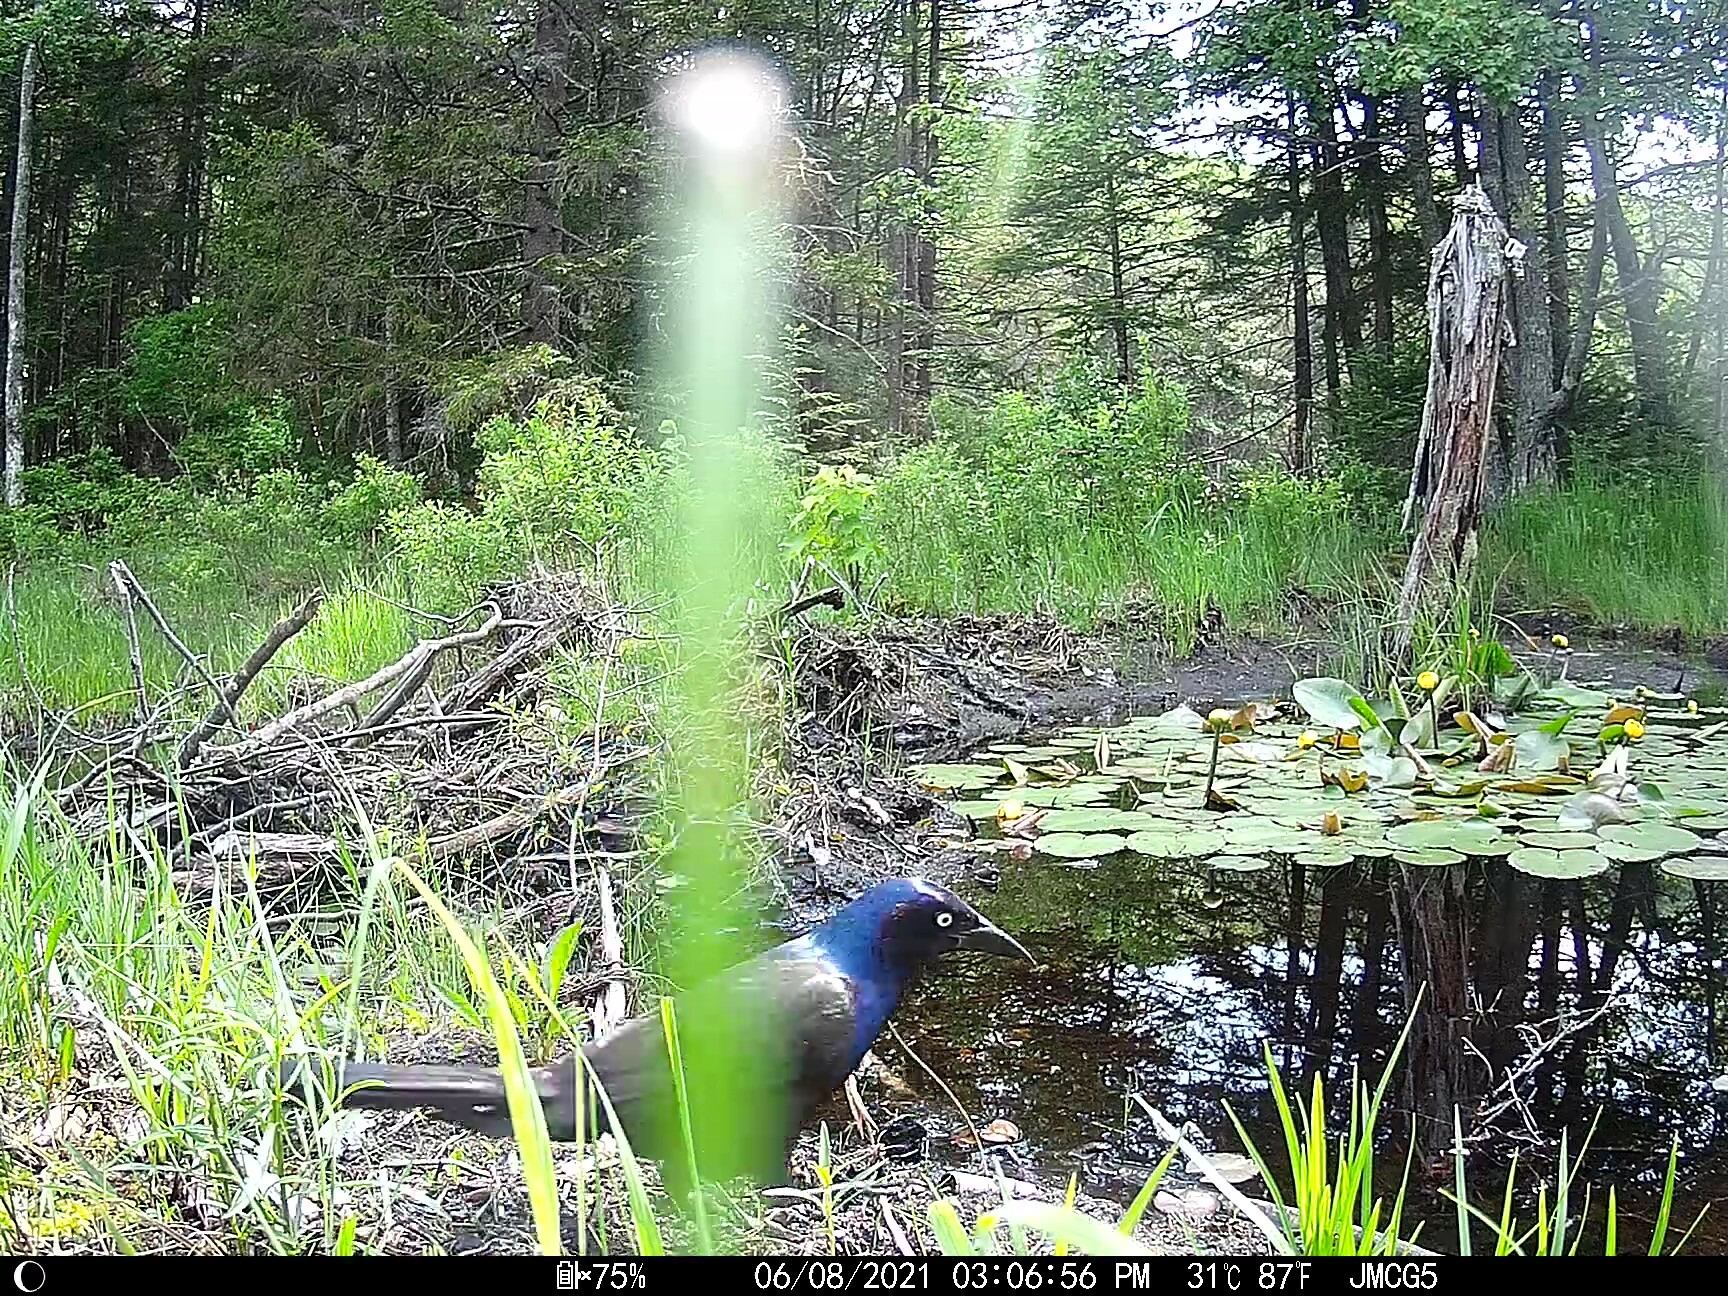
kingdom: Animalia
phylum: Chordata
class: Aves
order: Passeriformes
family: Icteridae
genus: Quiscalus
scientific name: Quiscalus quiscula
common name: Common grackle
